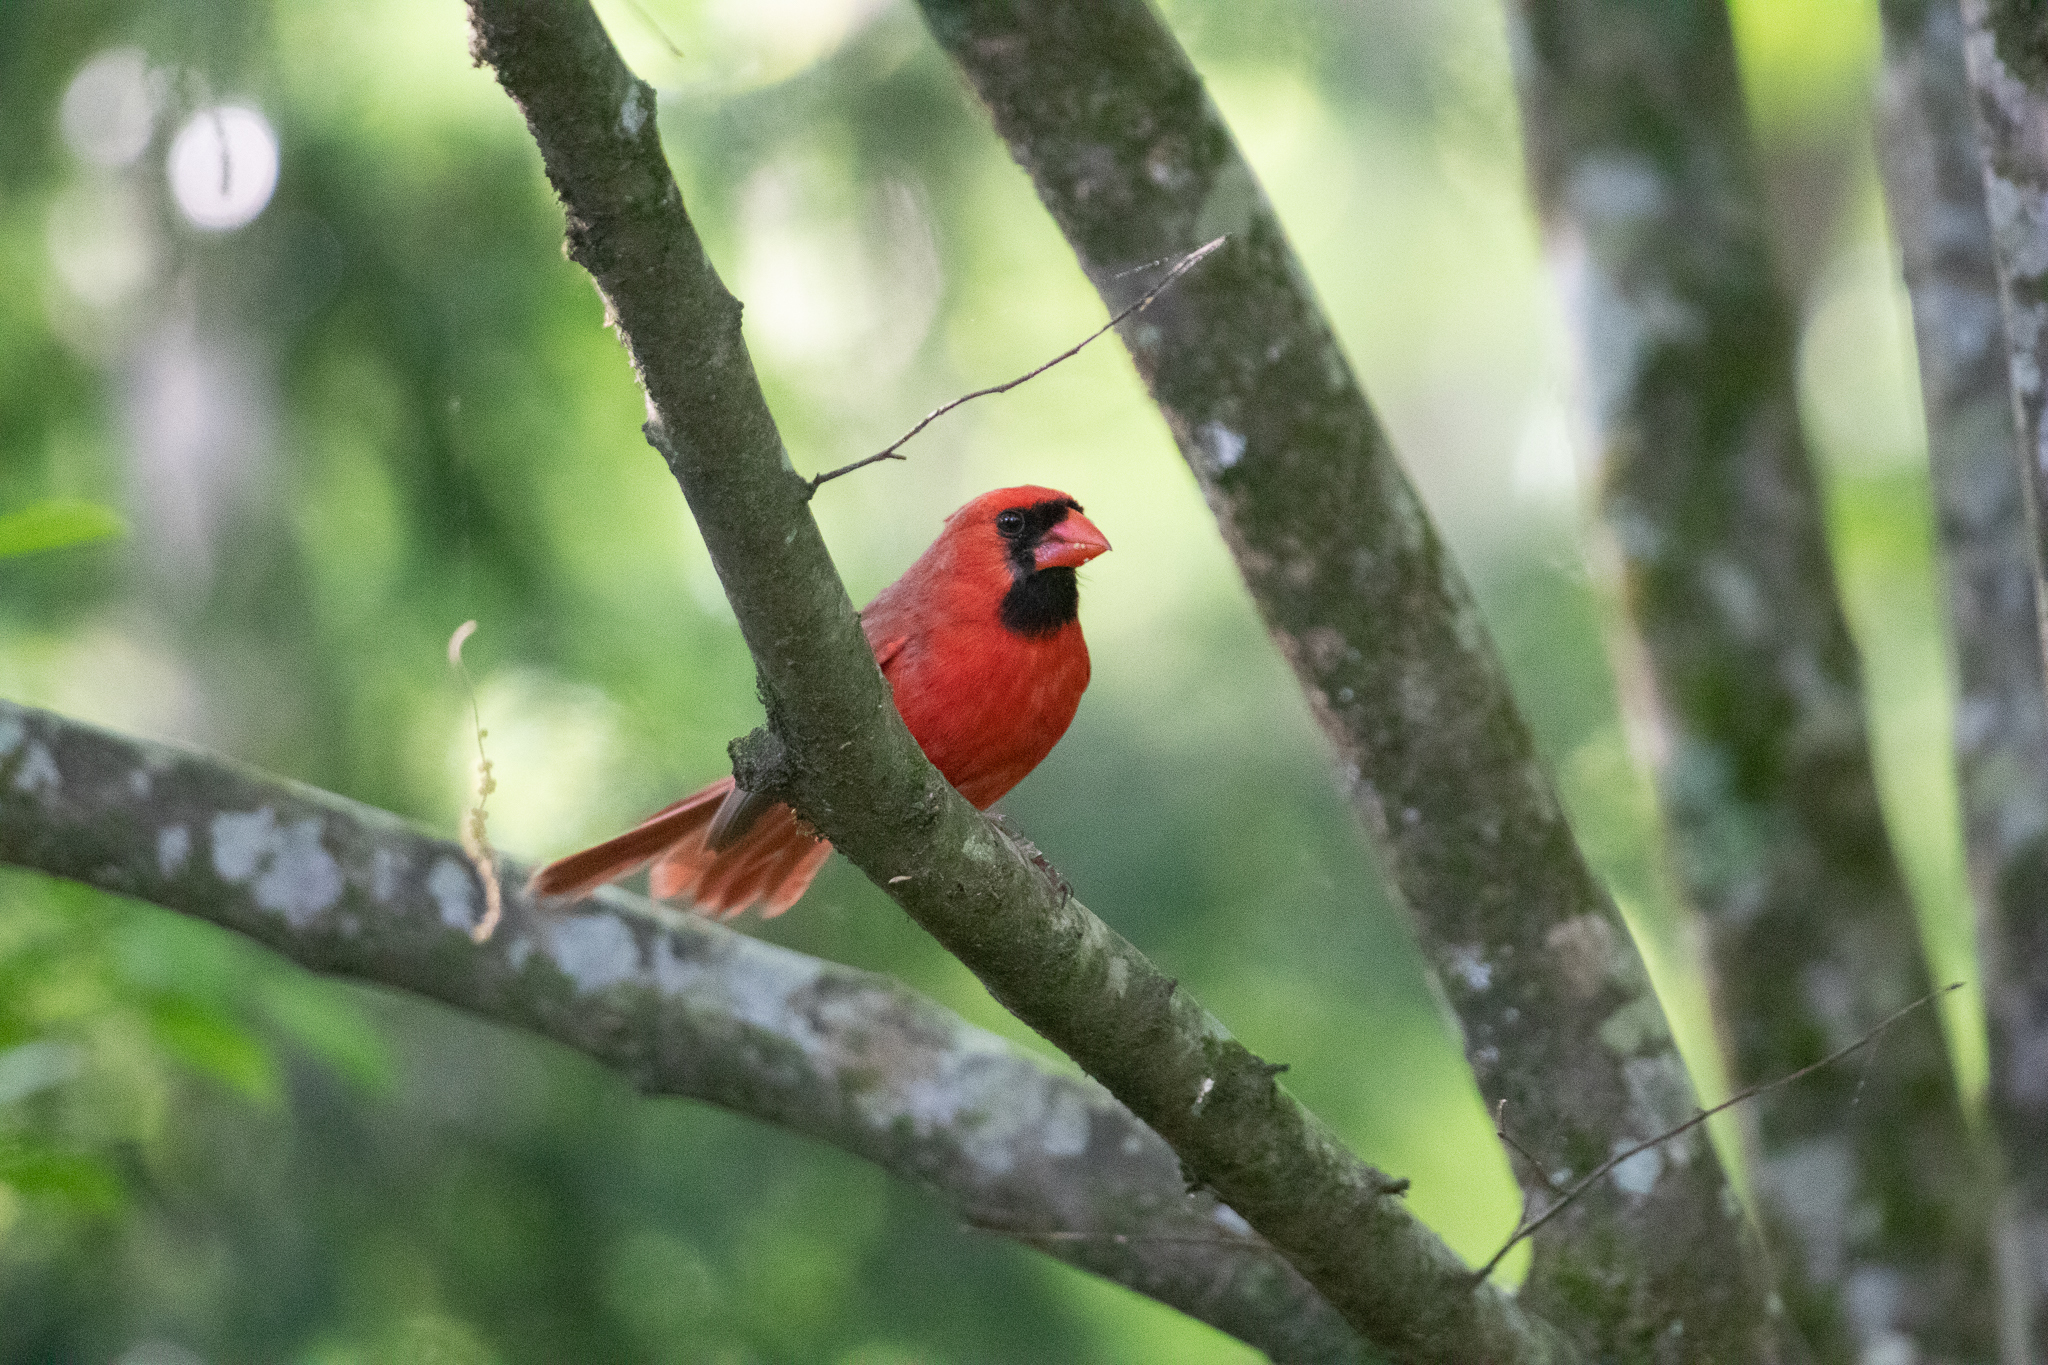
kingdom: Animalia
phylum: Chordata
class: Aves
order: Passeriformes
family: Cardinalidae
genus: Cardinalis
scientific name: Cardinalis cardinalis
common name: Northern cardinal
